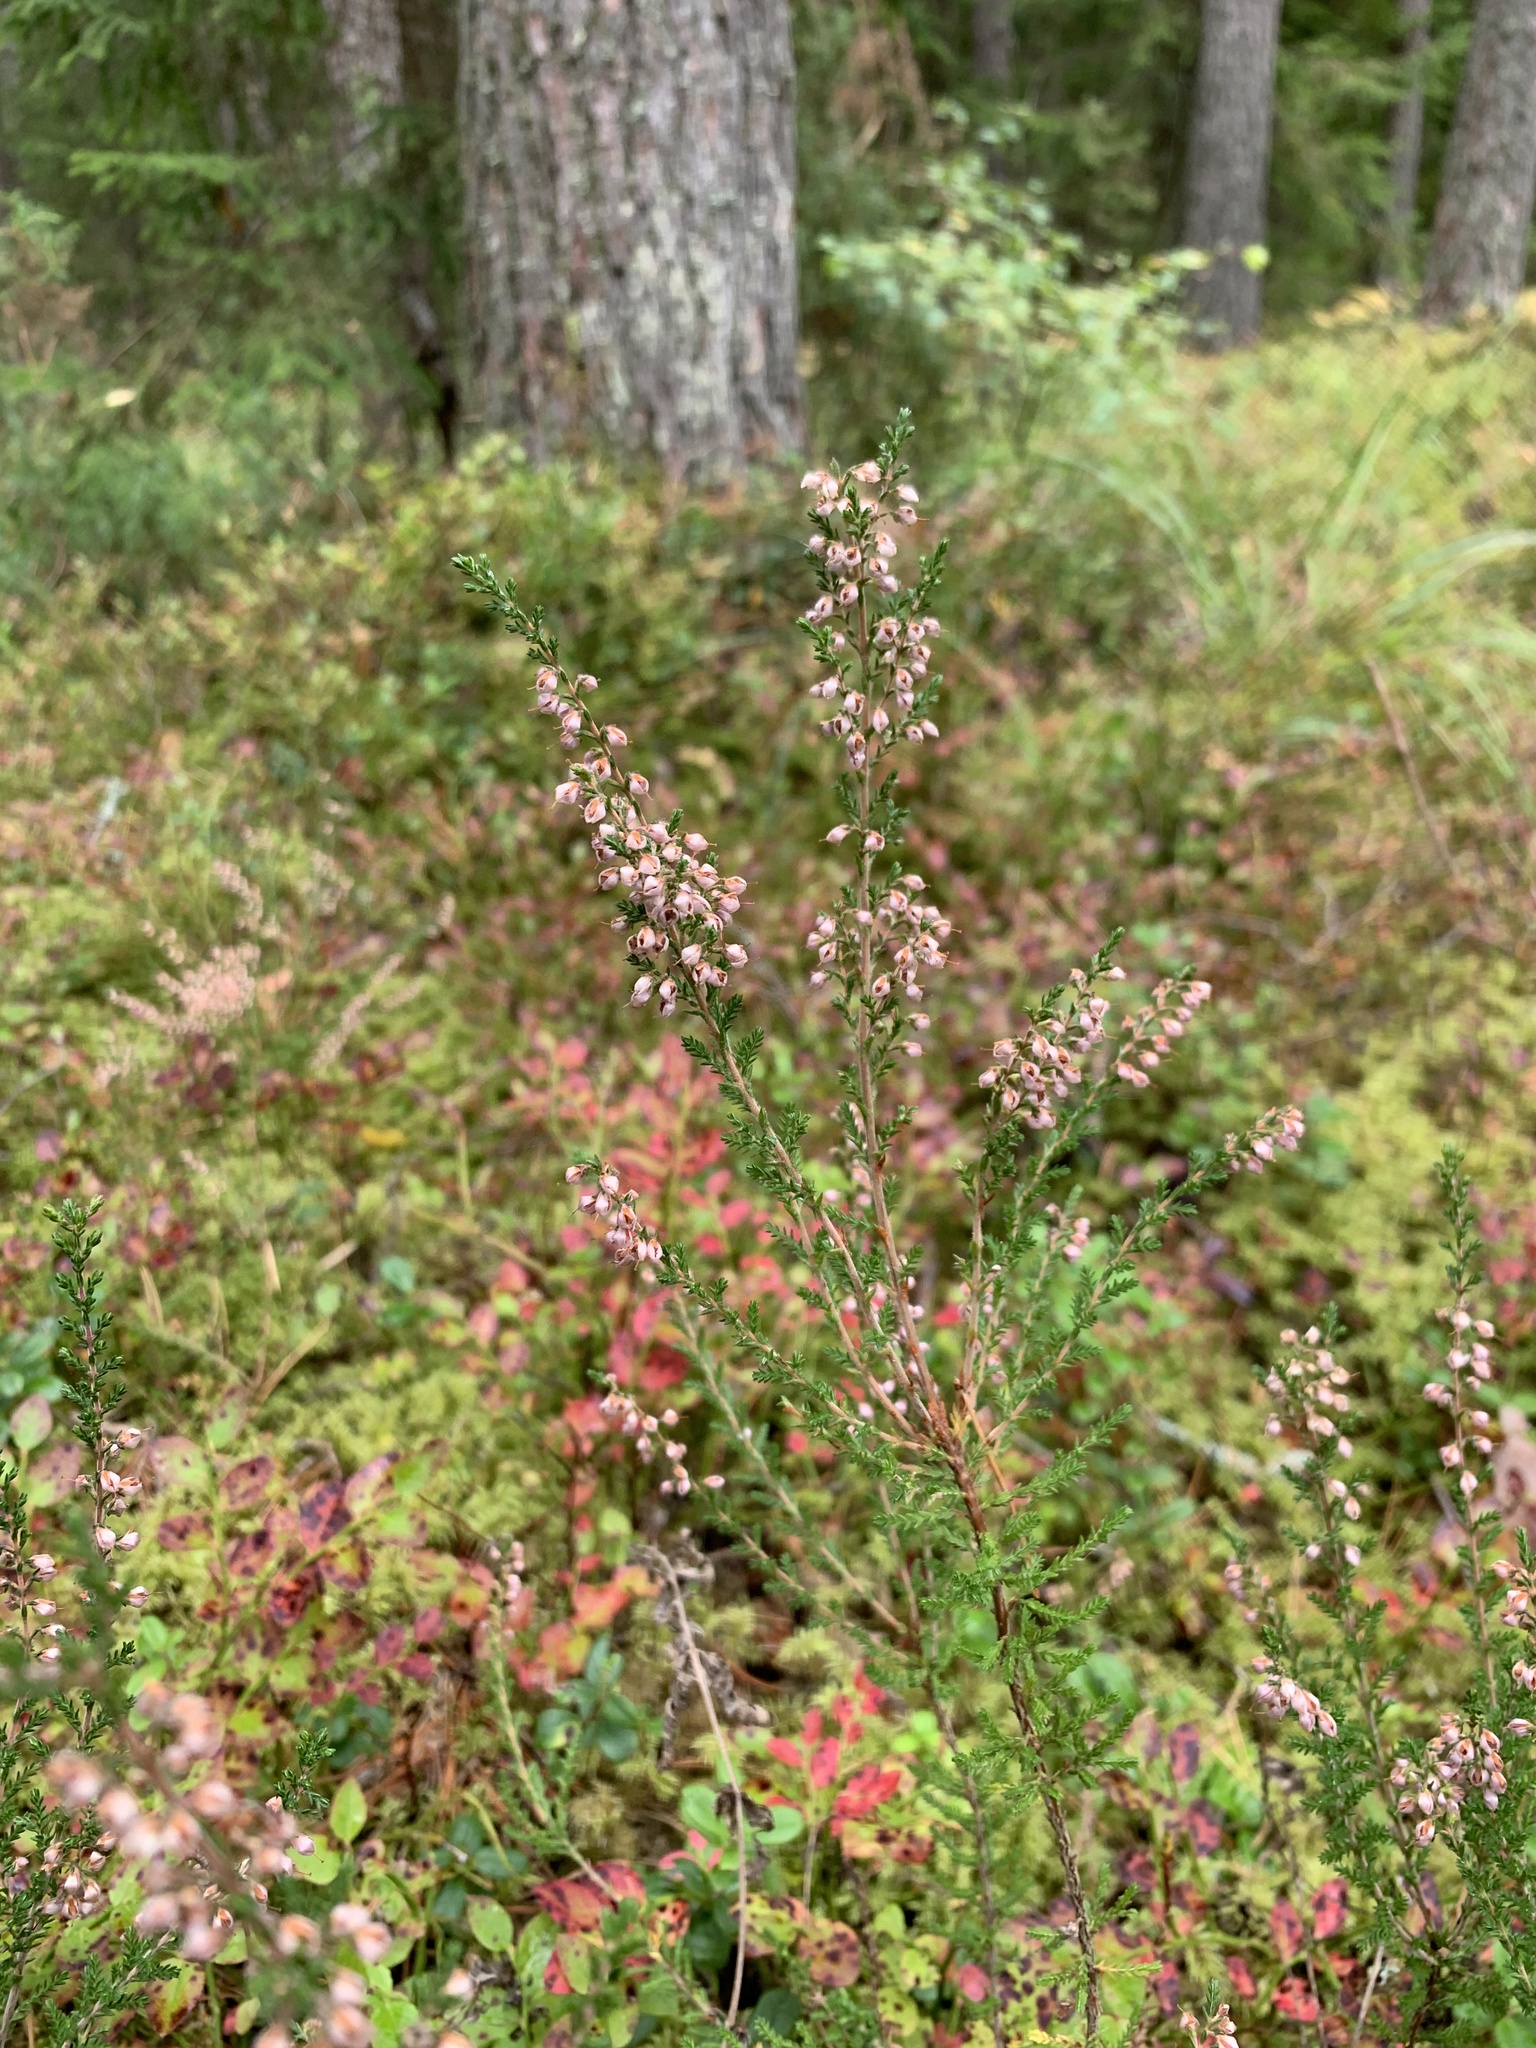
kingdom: Plantae
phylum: Tracheophyta
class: Magnoliopsida
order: Ericales
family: Ericaceae
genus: Calluna
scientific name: Calluna vulgaris
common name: Heather
